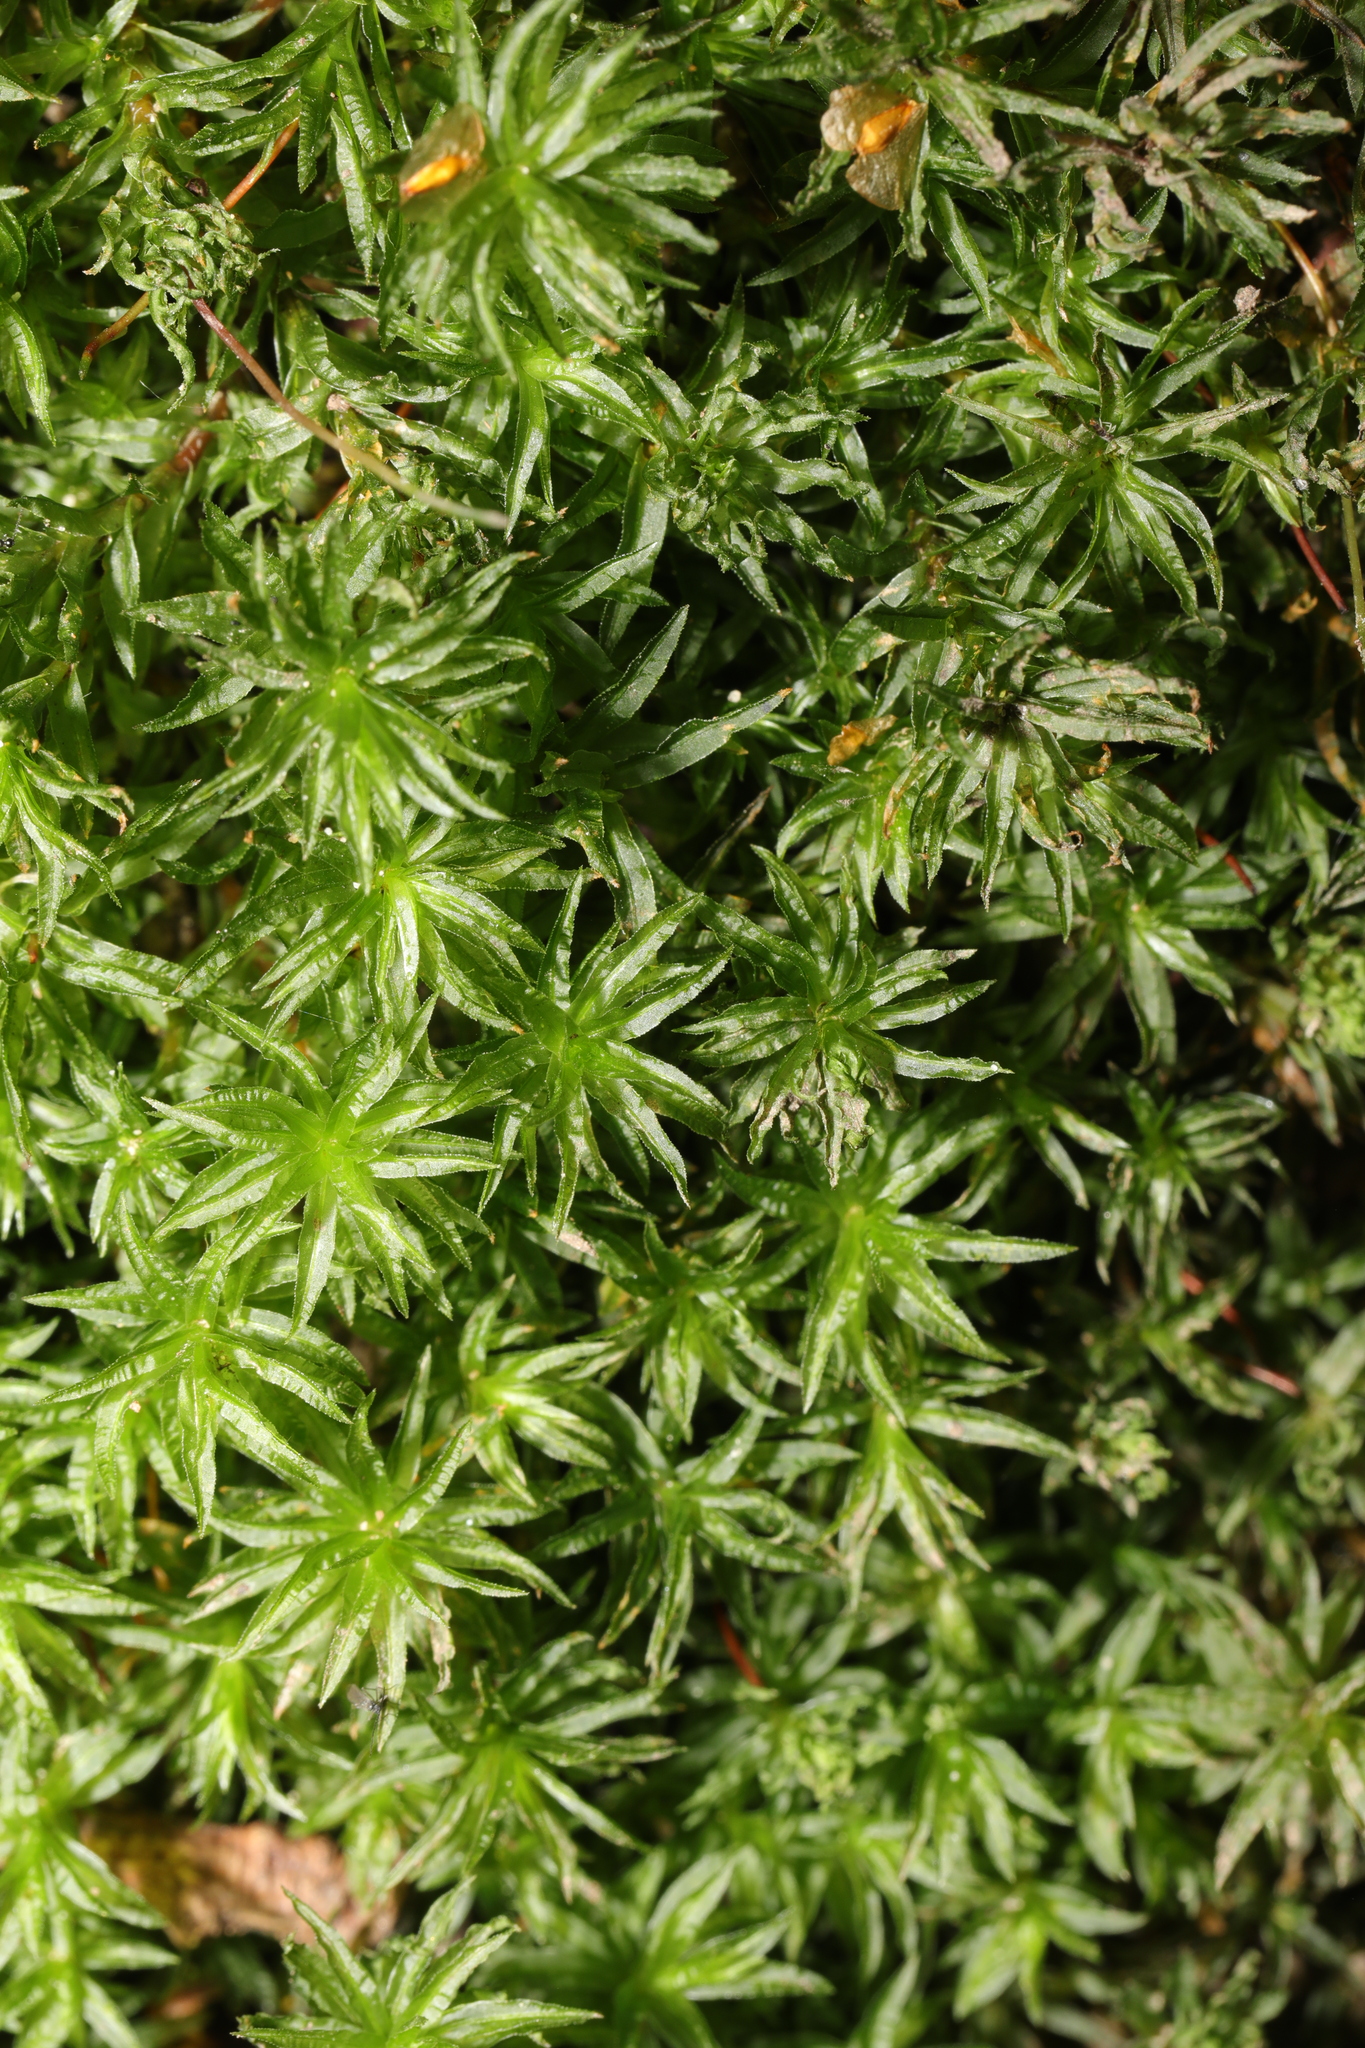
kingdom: Plantae
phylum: Bryophyta
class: Polytrichopsida
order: Polytrichales
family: Polytrichaceae
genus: Atrichum
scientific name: Atrichum undulatum
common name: Common smoothcap
